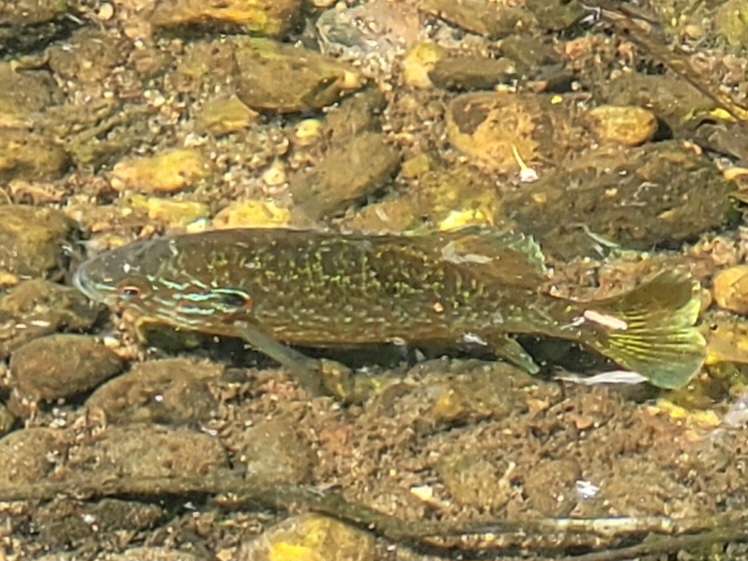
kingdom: Animalia
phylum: Chordata
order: Perciformes
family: Centrarchidae
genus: Lepomis
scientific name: Lepomis gibbosus
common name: Pumpkinseed
